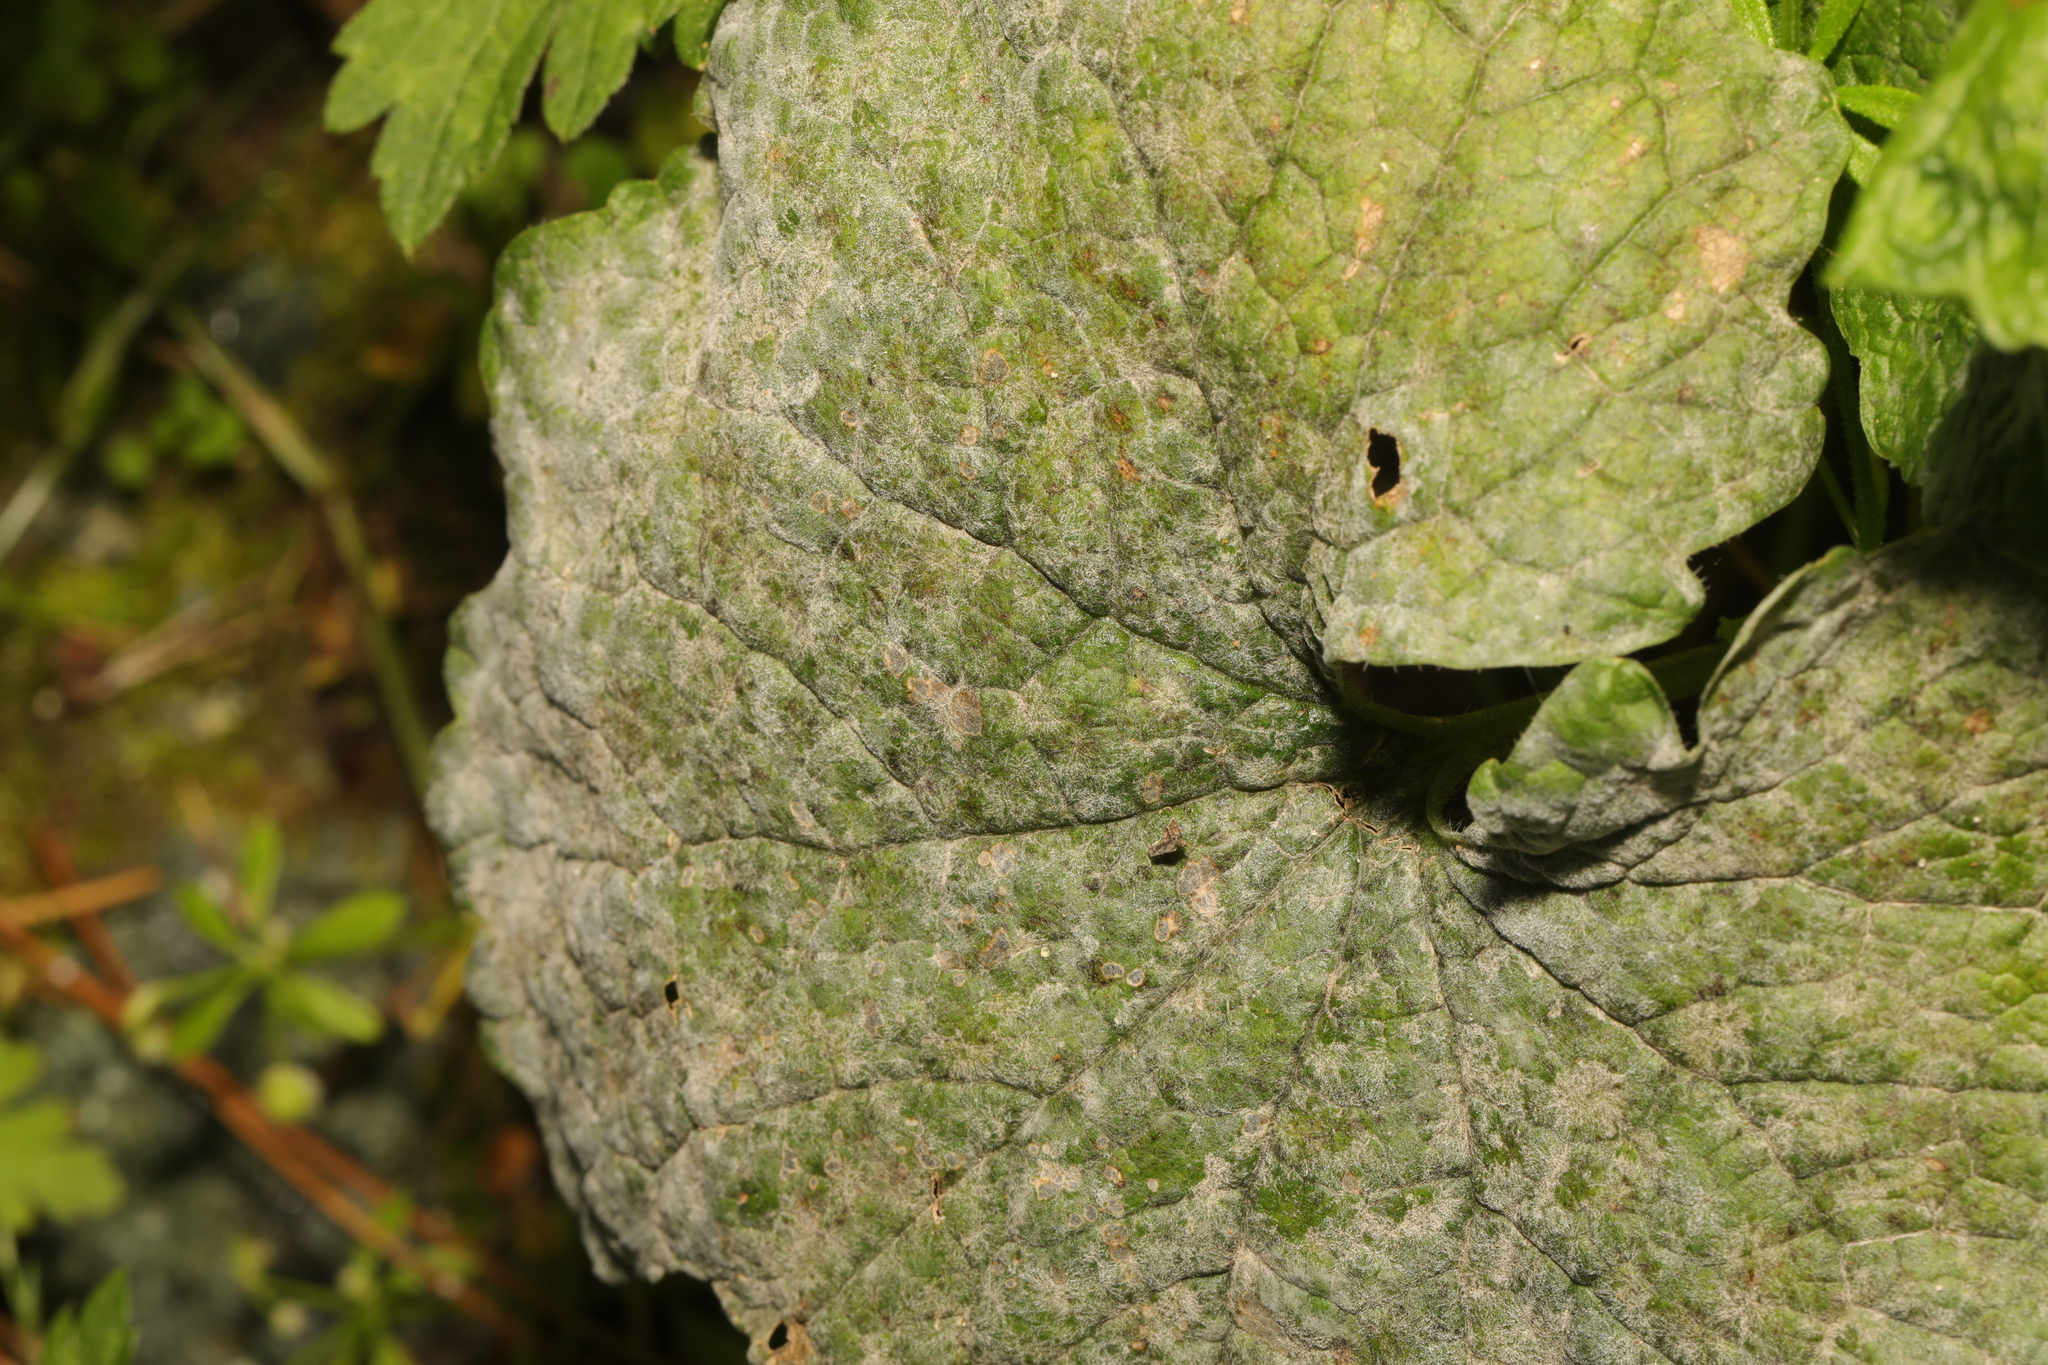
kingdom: Fungi
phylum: Ascomycota
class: Leotiomycetes
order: Helotiales
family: Erysiphaceae
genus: Erysiphe
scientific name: Erysiphe cruciferarum
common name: Brassica powdery mildew
